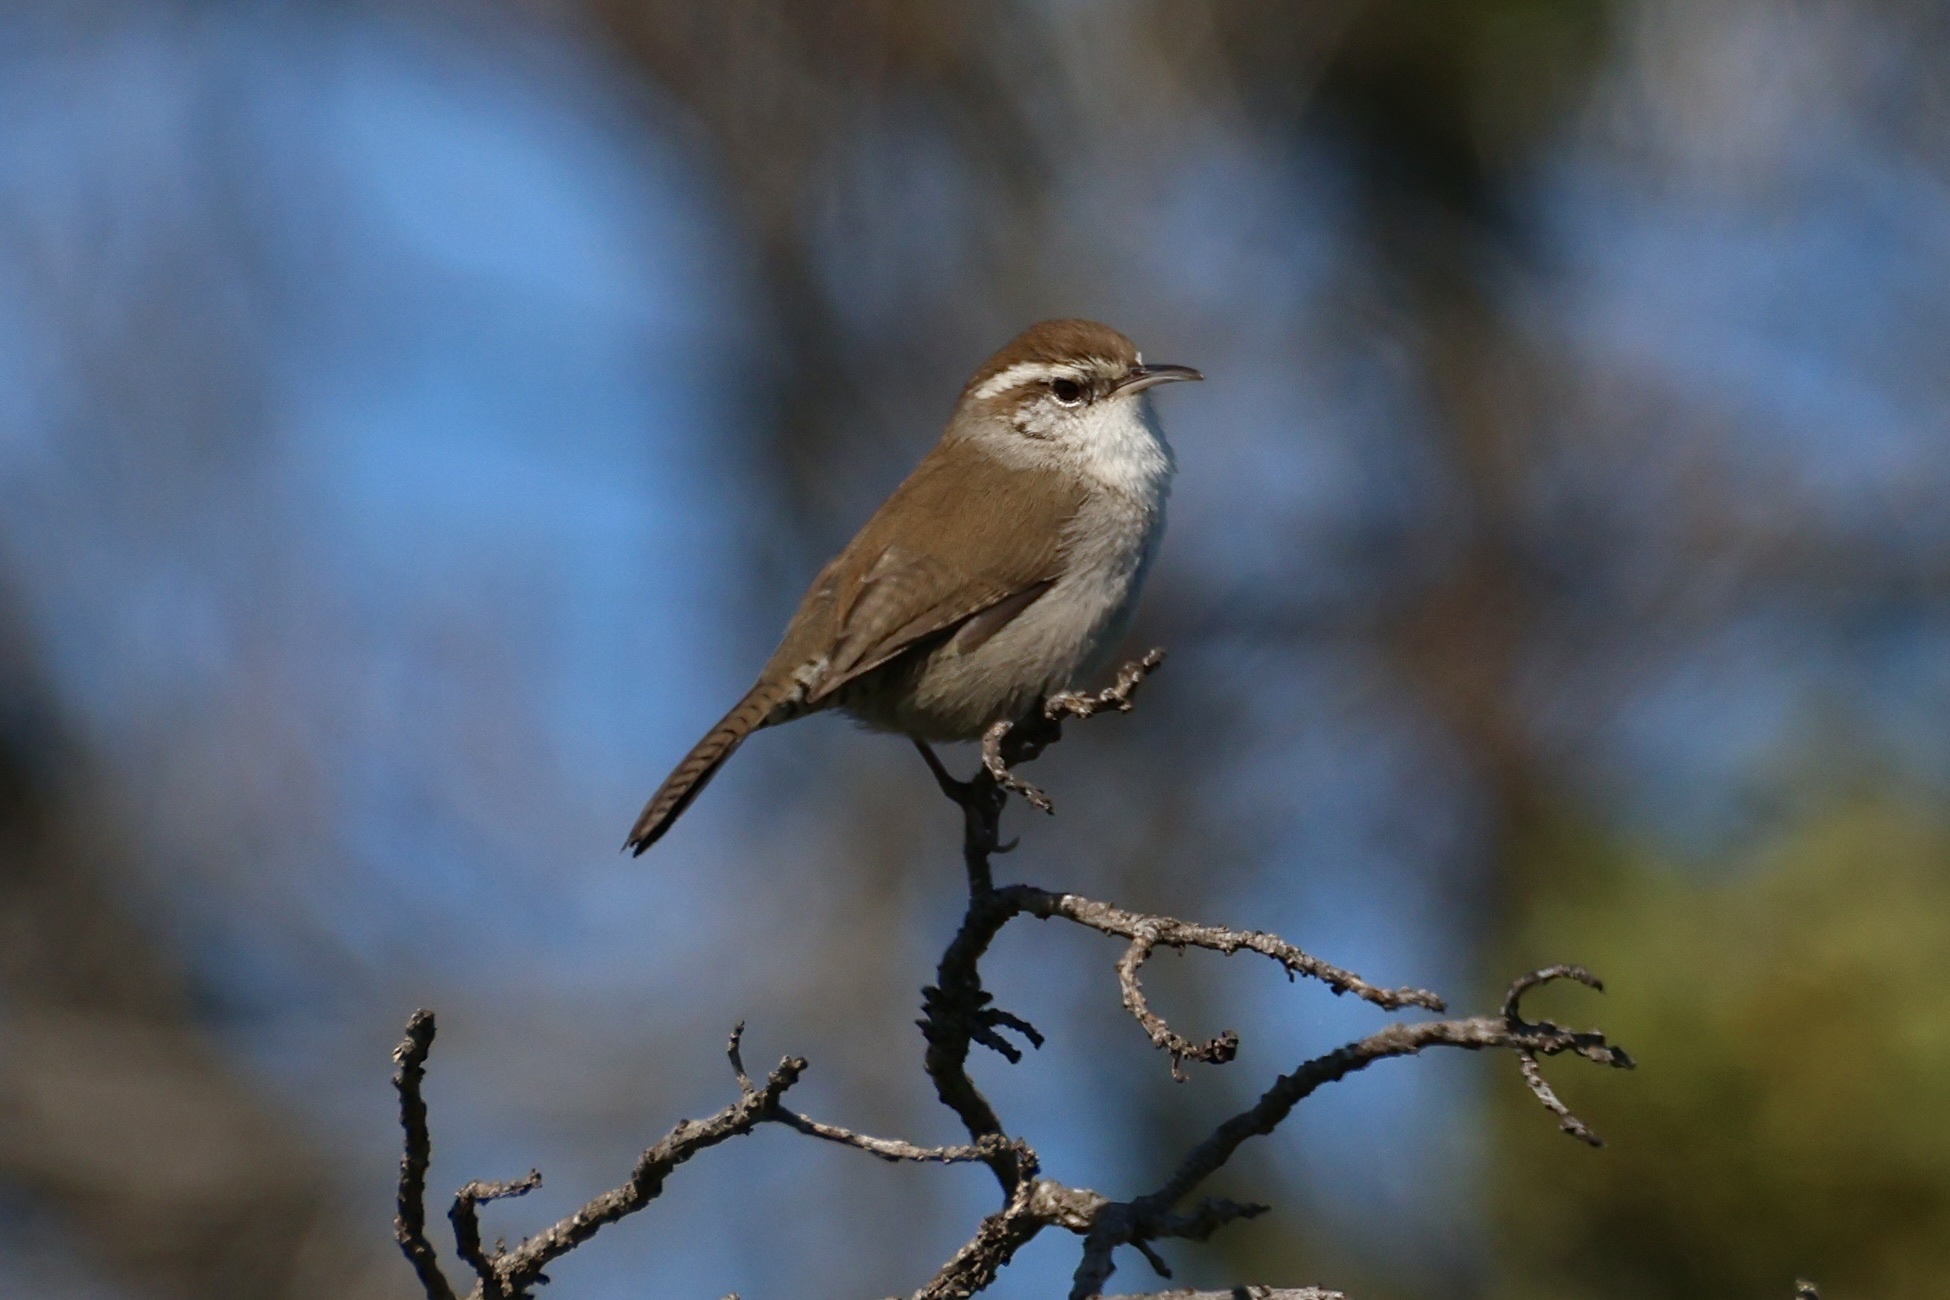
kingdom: Animalia
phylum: Chordata
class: Aves
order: Passeriformes
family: Troglodytidae
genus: Thryomanes
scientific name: Thryomanes bewickii
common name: Bewick's wren
